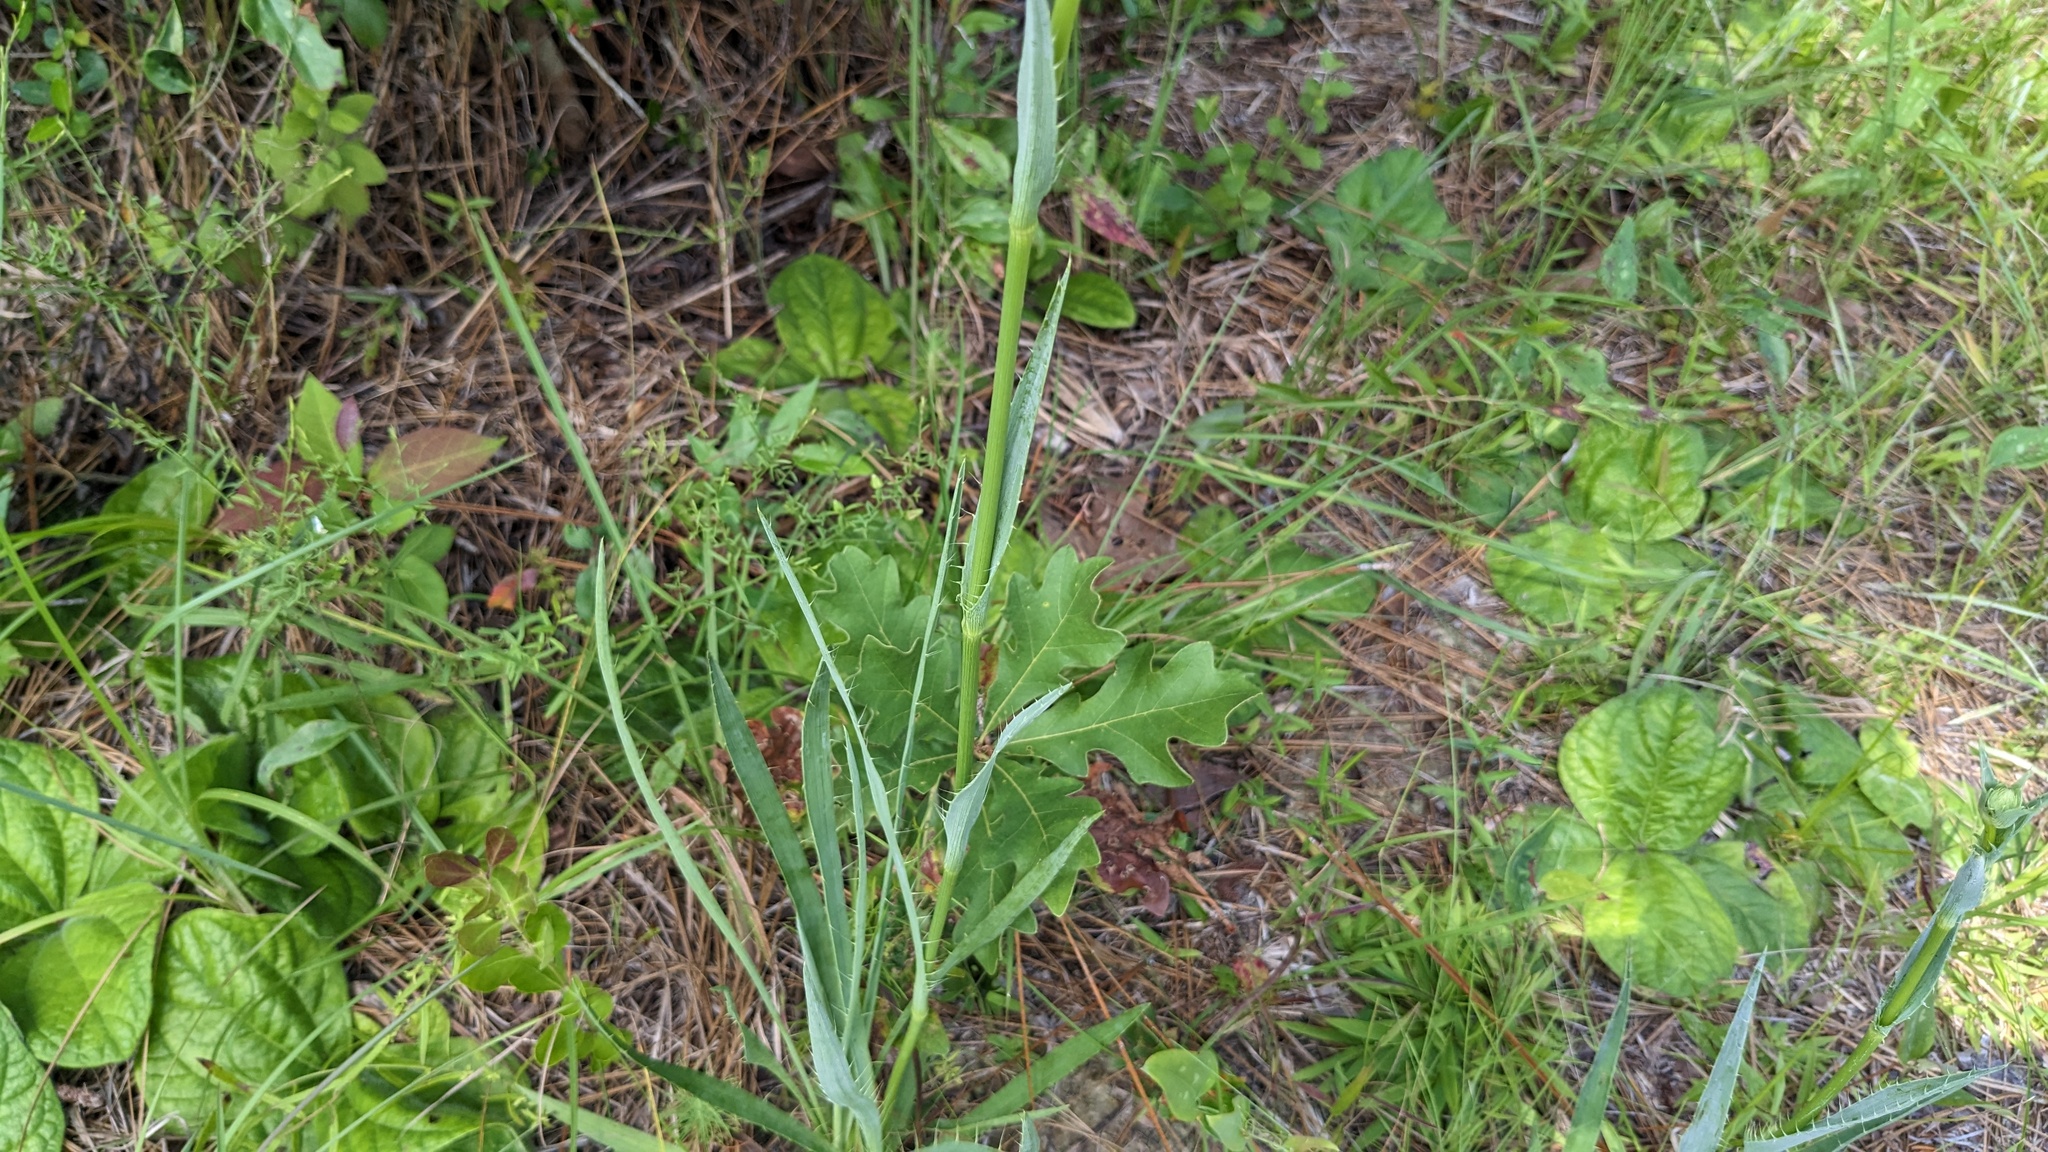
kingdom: Plantae
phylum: Tracheophyta
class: Magnoliopsida
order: Apiales
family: Apiaceae
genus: Eryngium
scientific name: Eryngium yuccifolium
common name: Button eryngo
